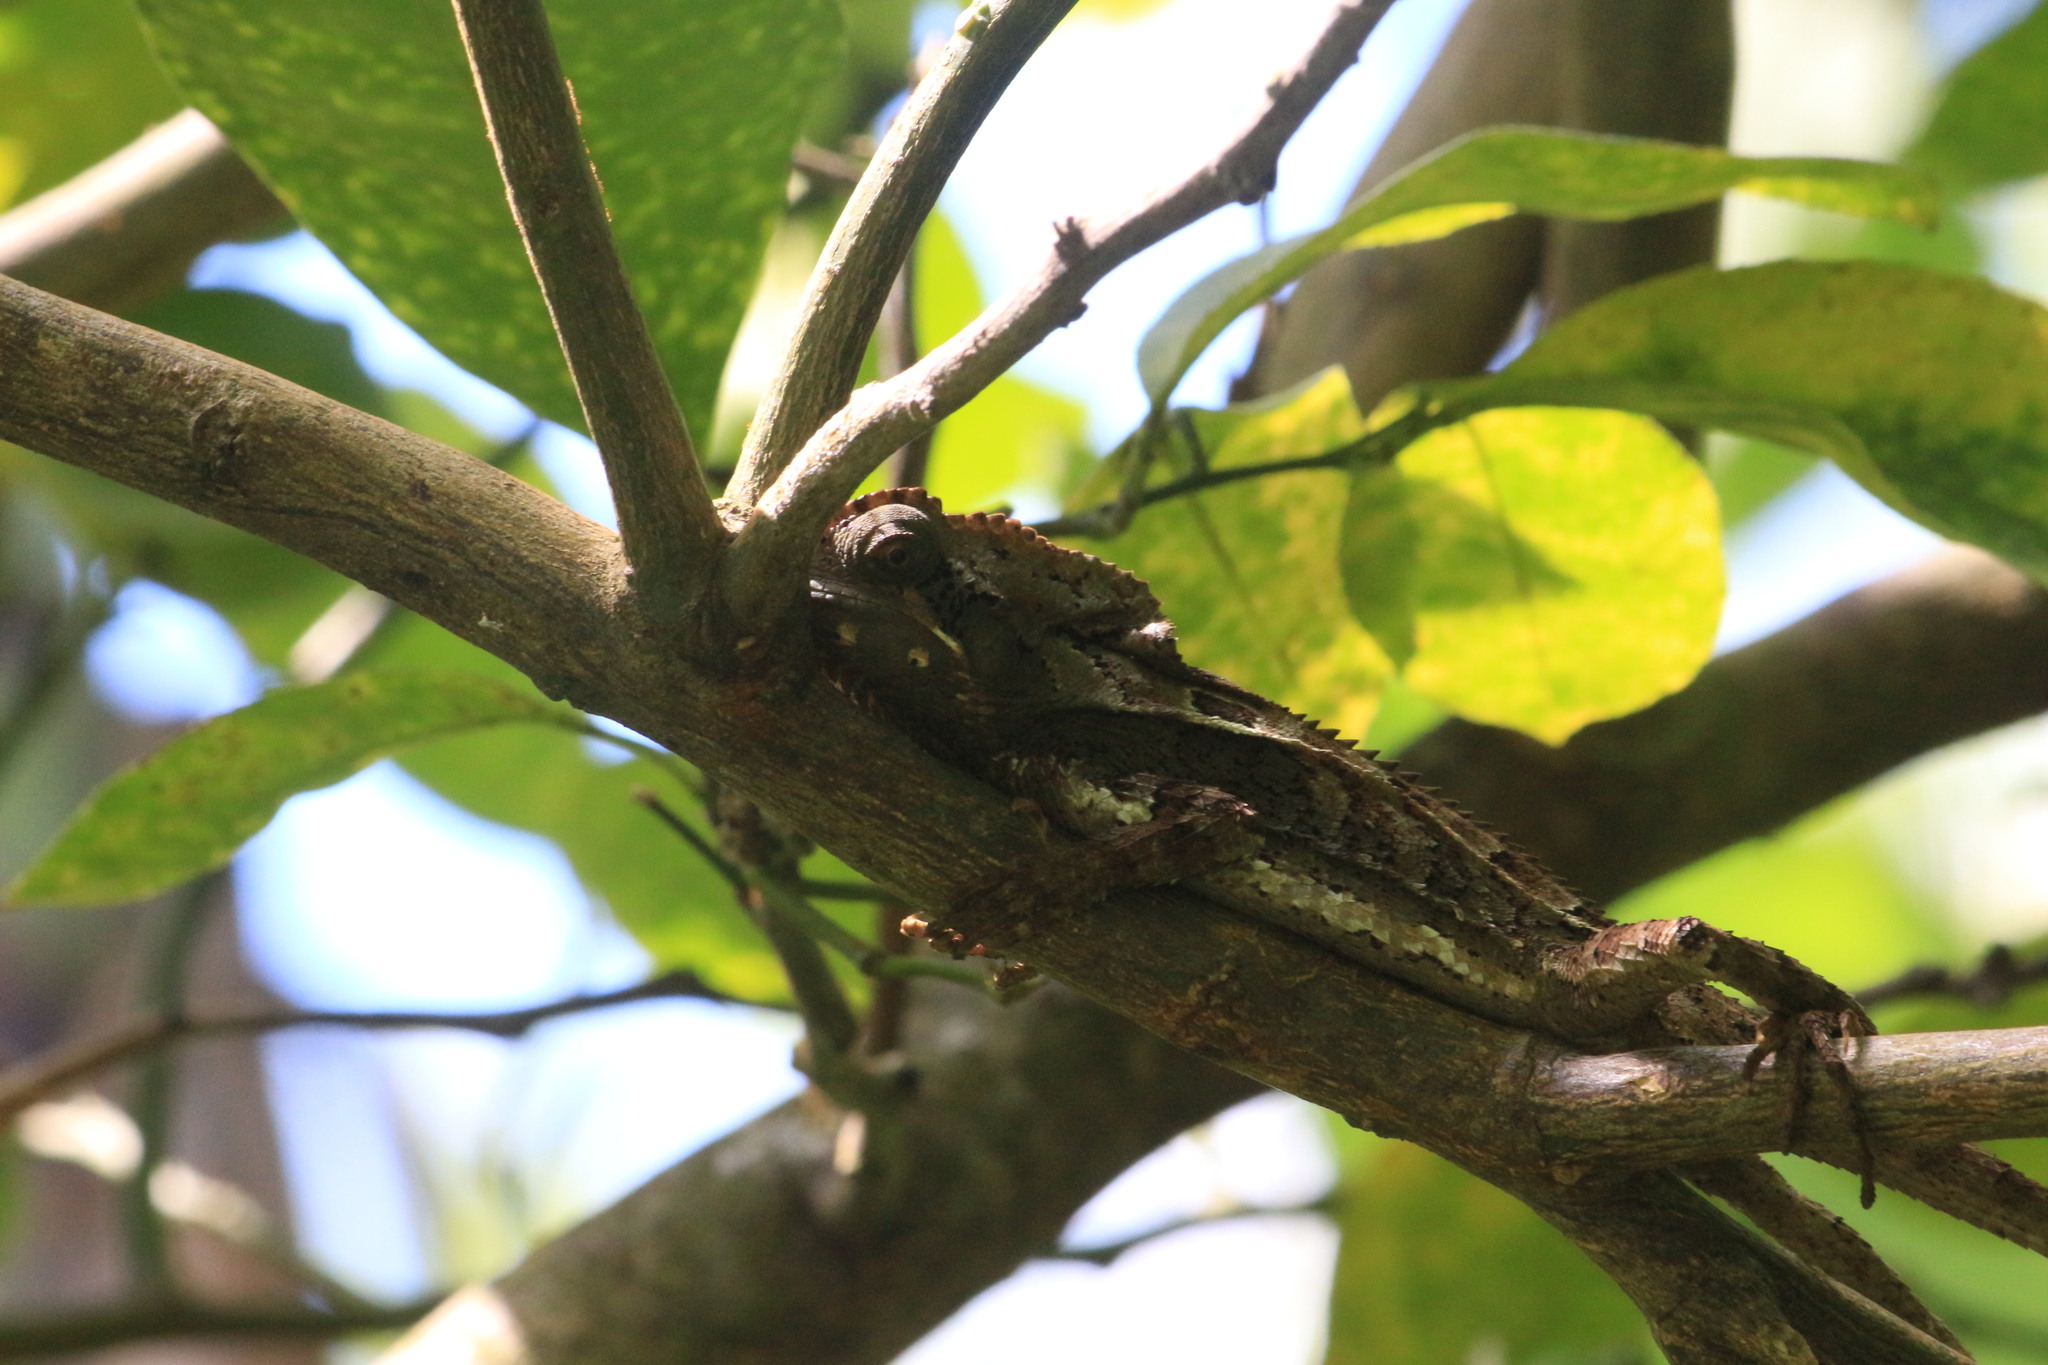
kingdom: Animalia
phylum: Chordata
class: Squamata
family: Corytophanidae
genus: Corytophanes
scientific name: Corytophanes percarinatus
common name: Keeled helmeted iguana
